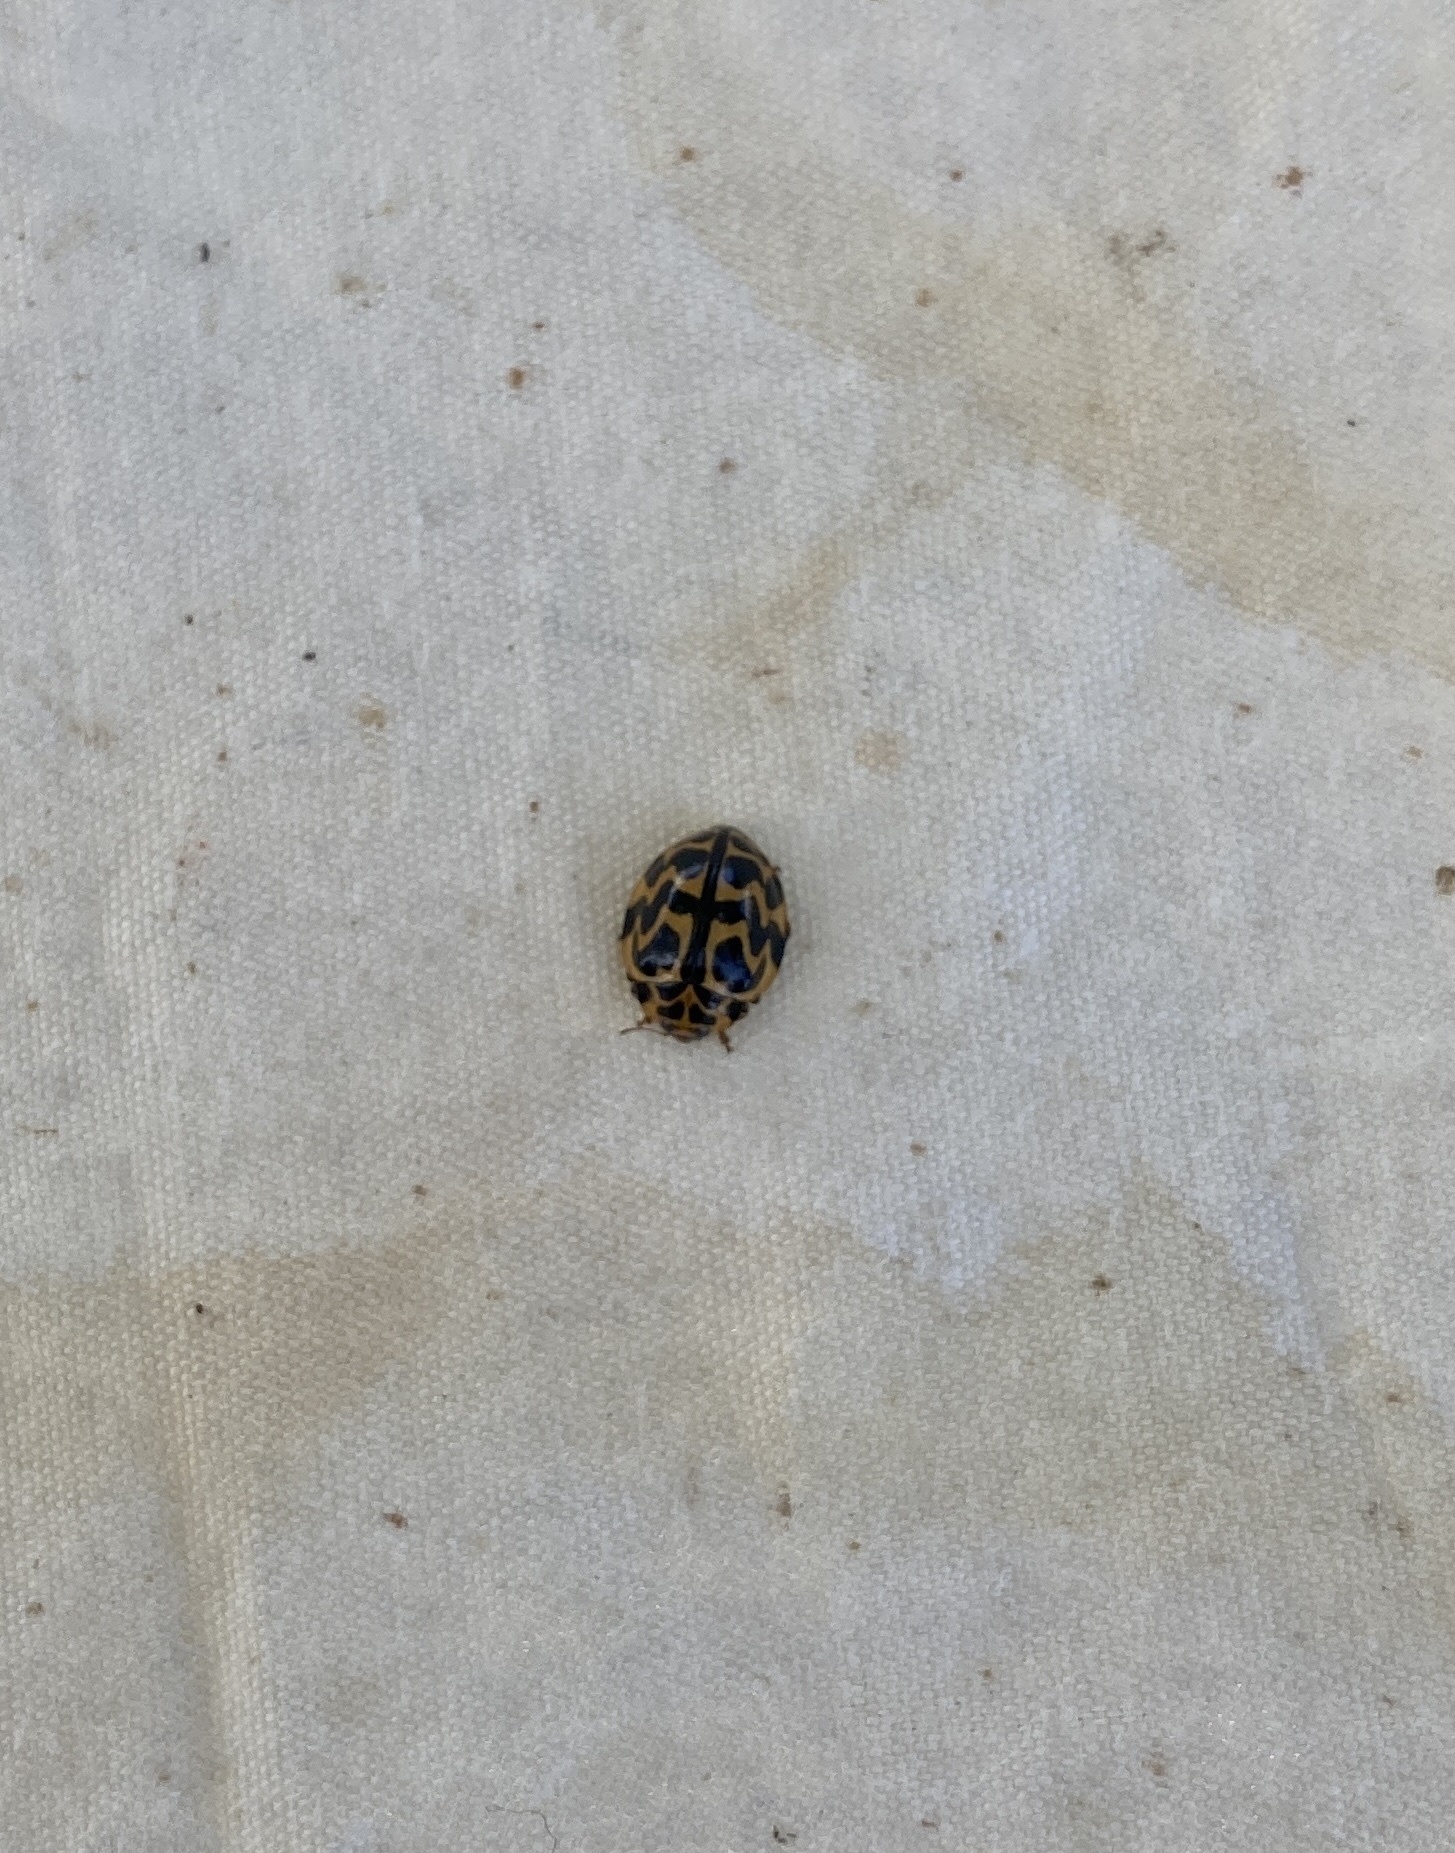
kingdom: Animalia
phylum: Arthropoda
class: Insecta
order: Coleoptera
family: Coccinellidae
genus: Cleobora
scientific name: Cleobora
